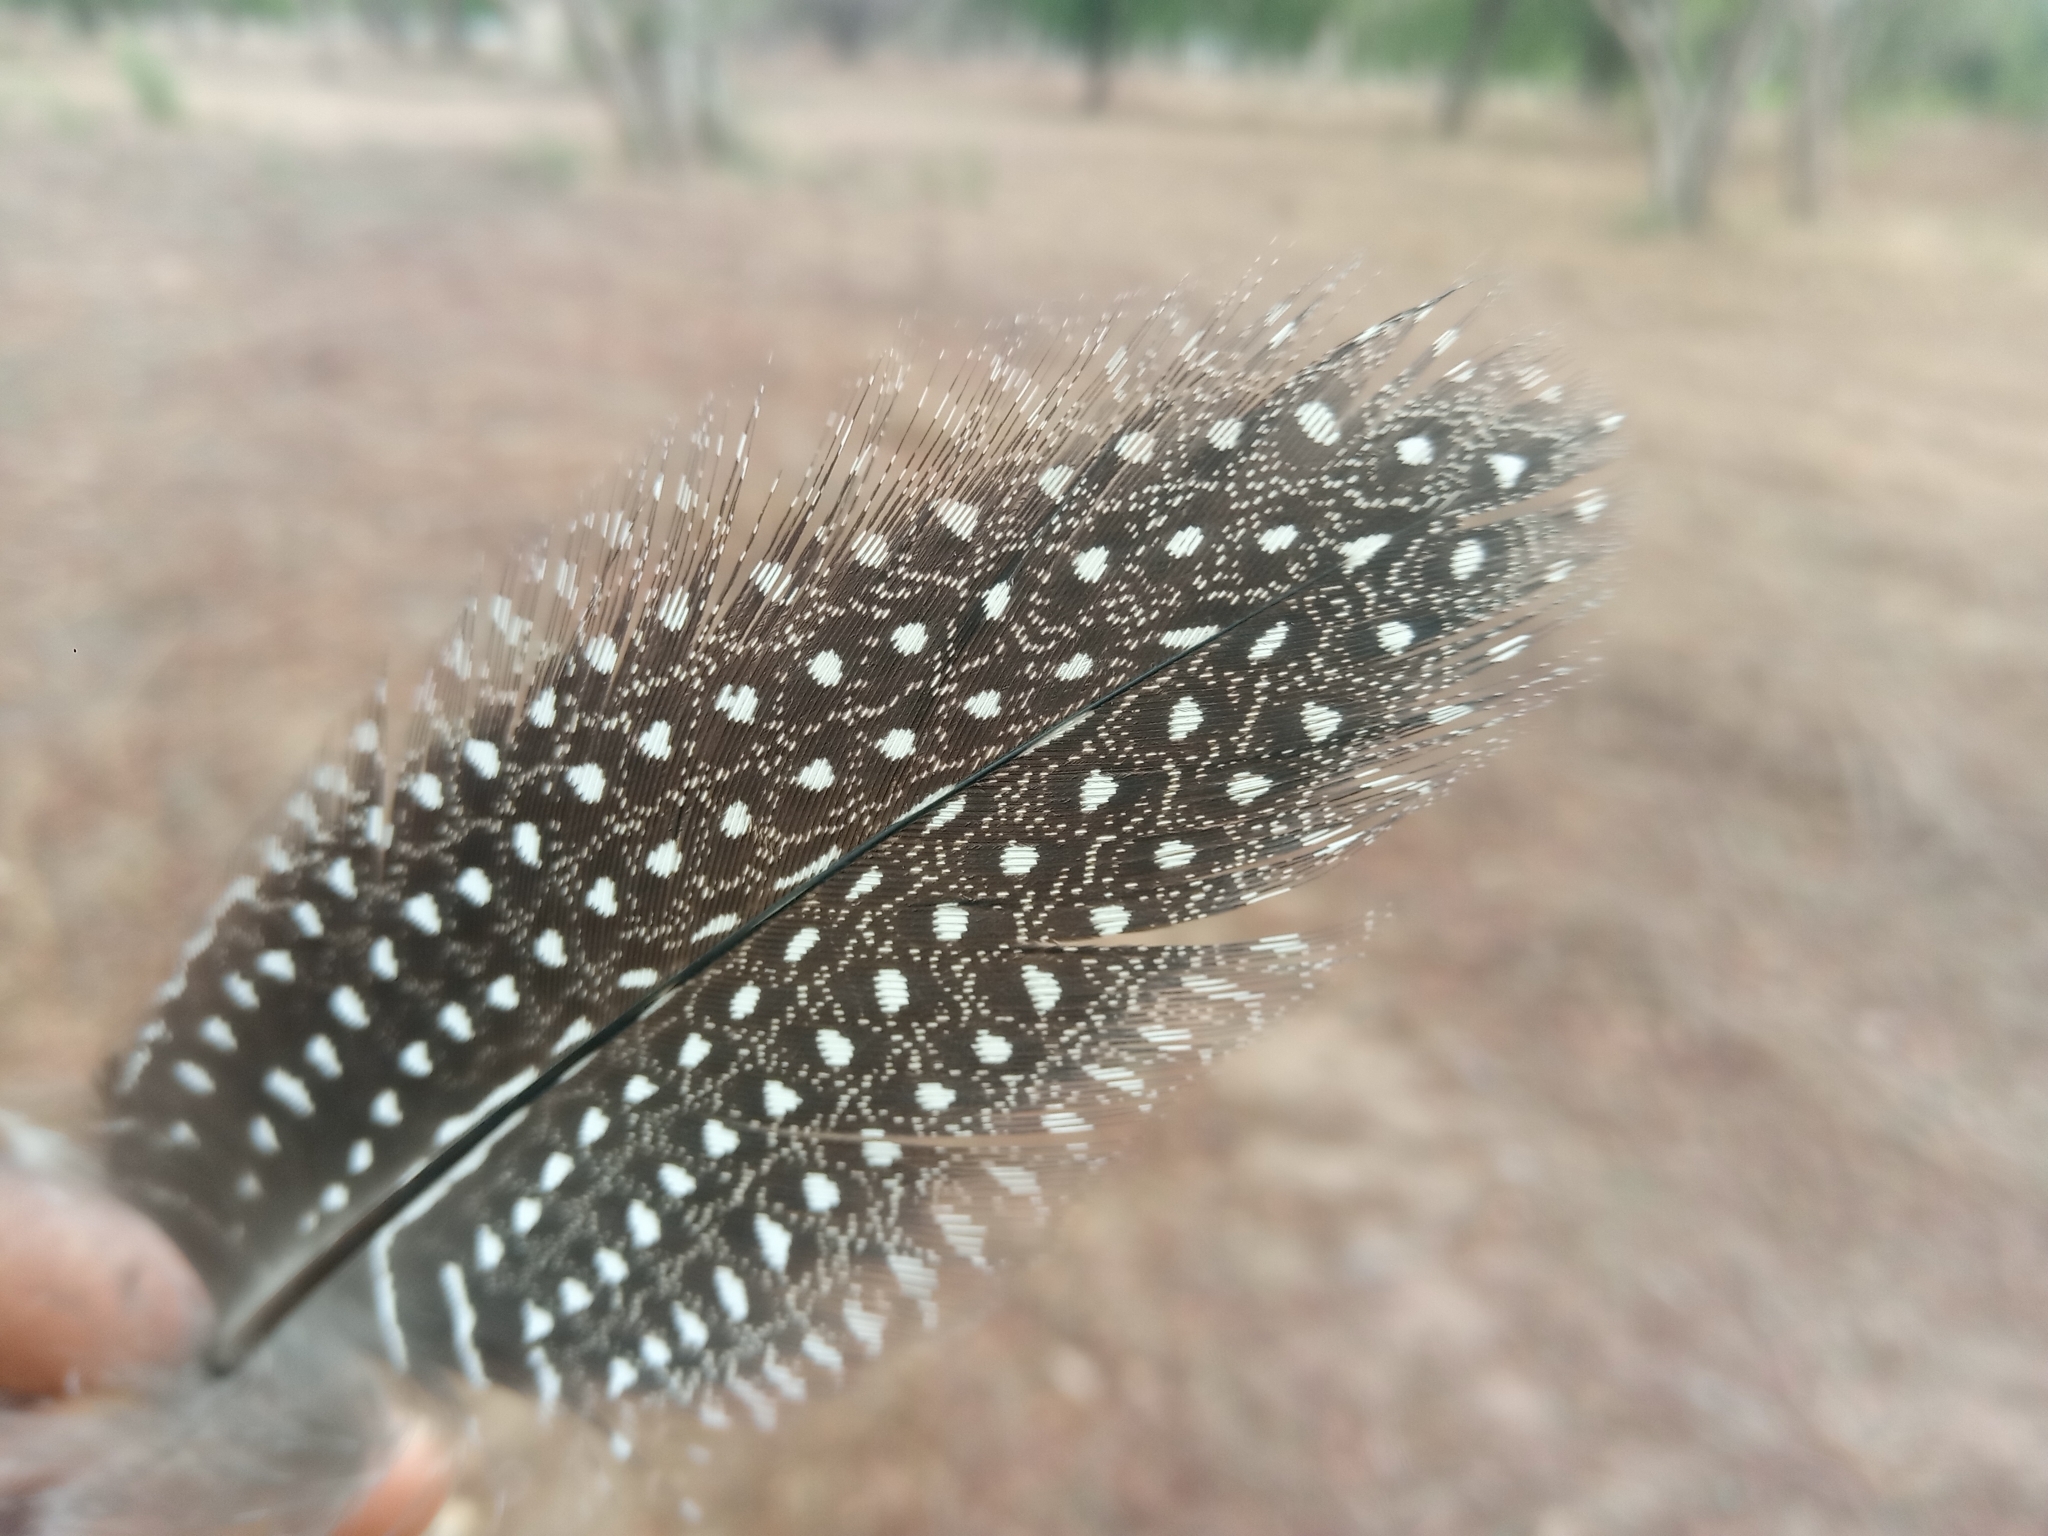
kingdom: Animalia
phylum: Chordata
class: Aves
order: Galliformes
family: Numididae
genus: Numida
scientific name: Numida meleagris
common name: Helmeted guineafowl
